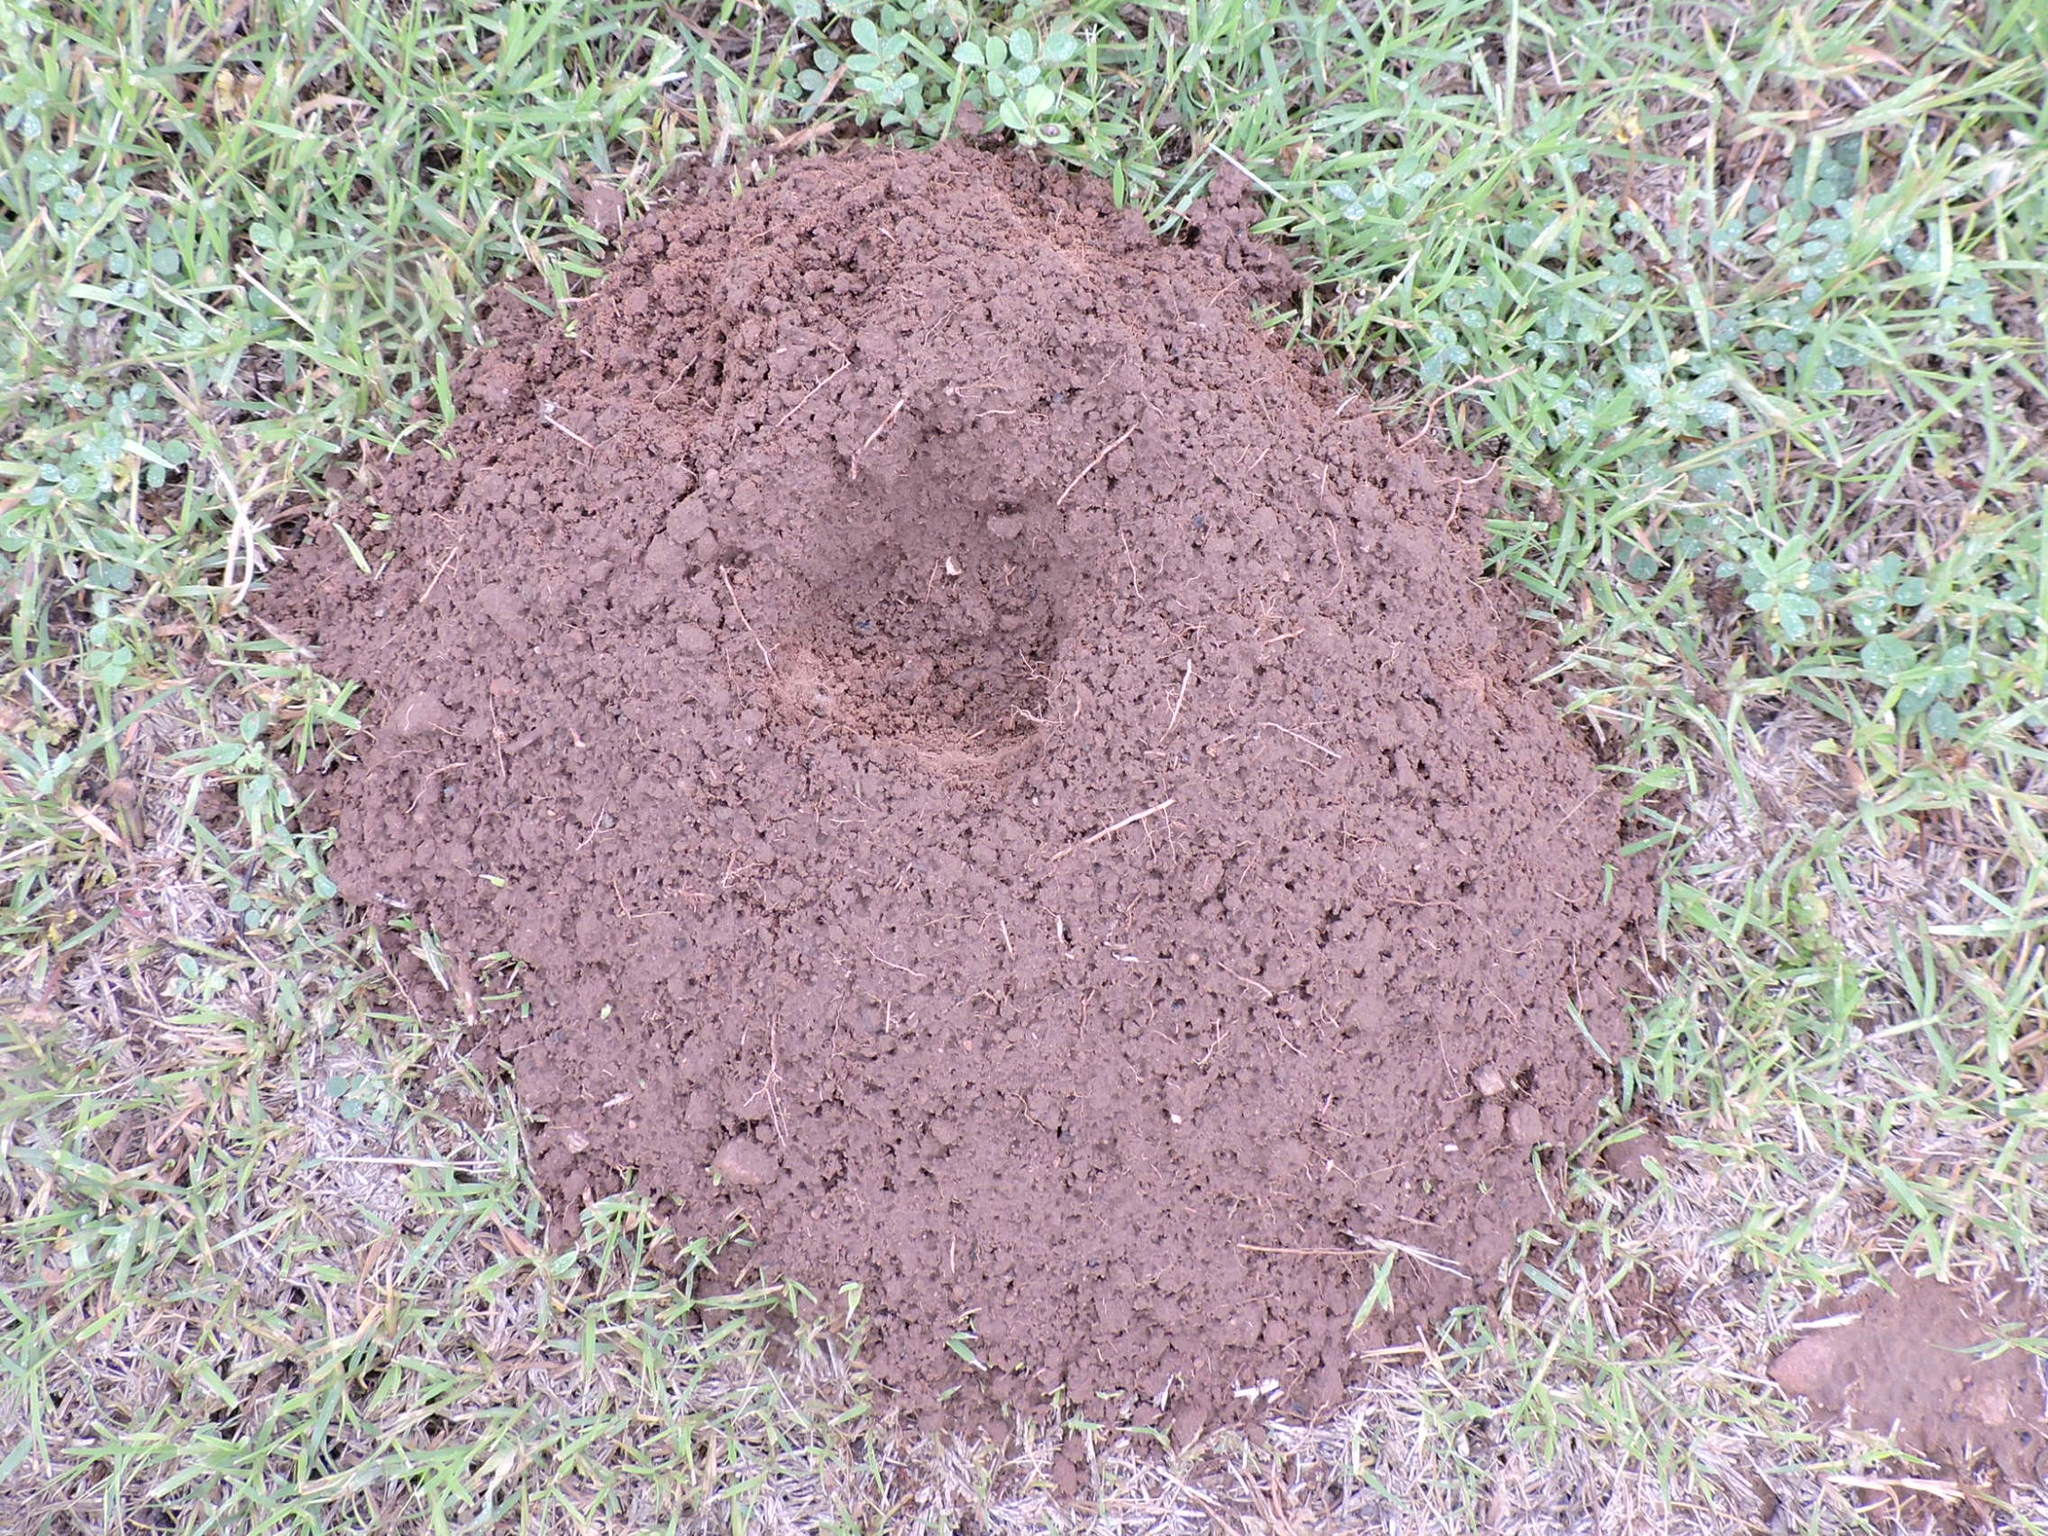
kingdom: Animalia
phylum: Chordata
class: Mammalia
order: Rodentia
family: Geomyidae
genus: Geomys
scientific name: Geomys bursarius
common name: Plains pocket gopher
